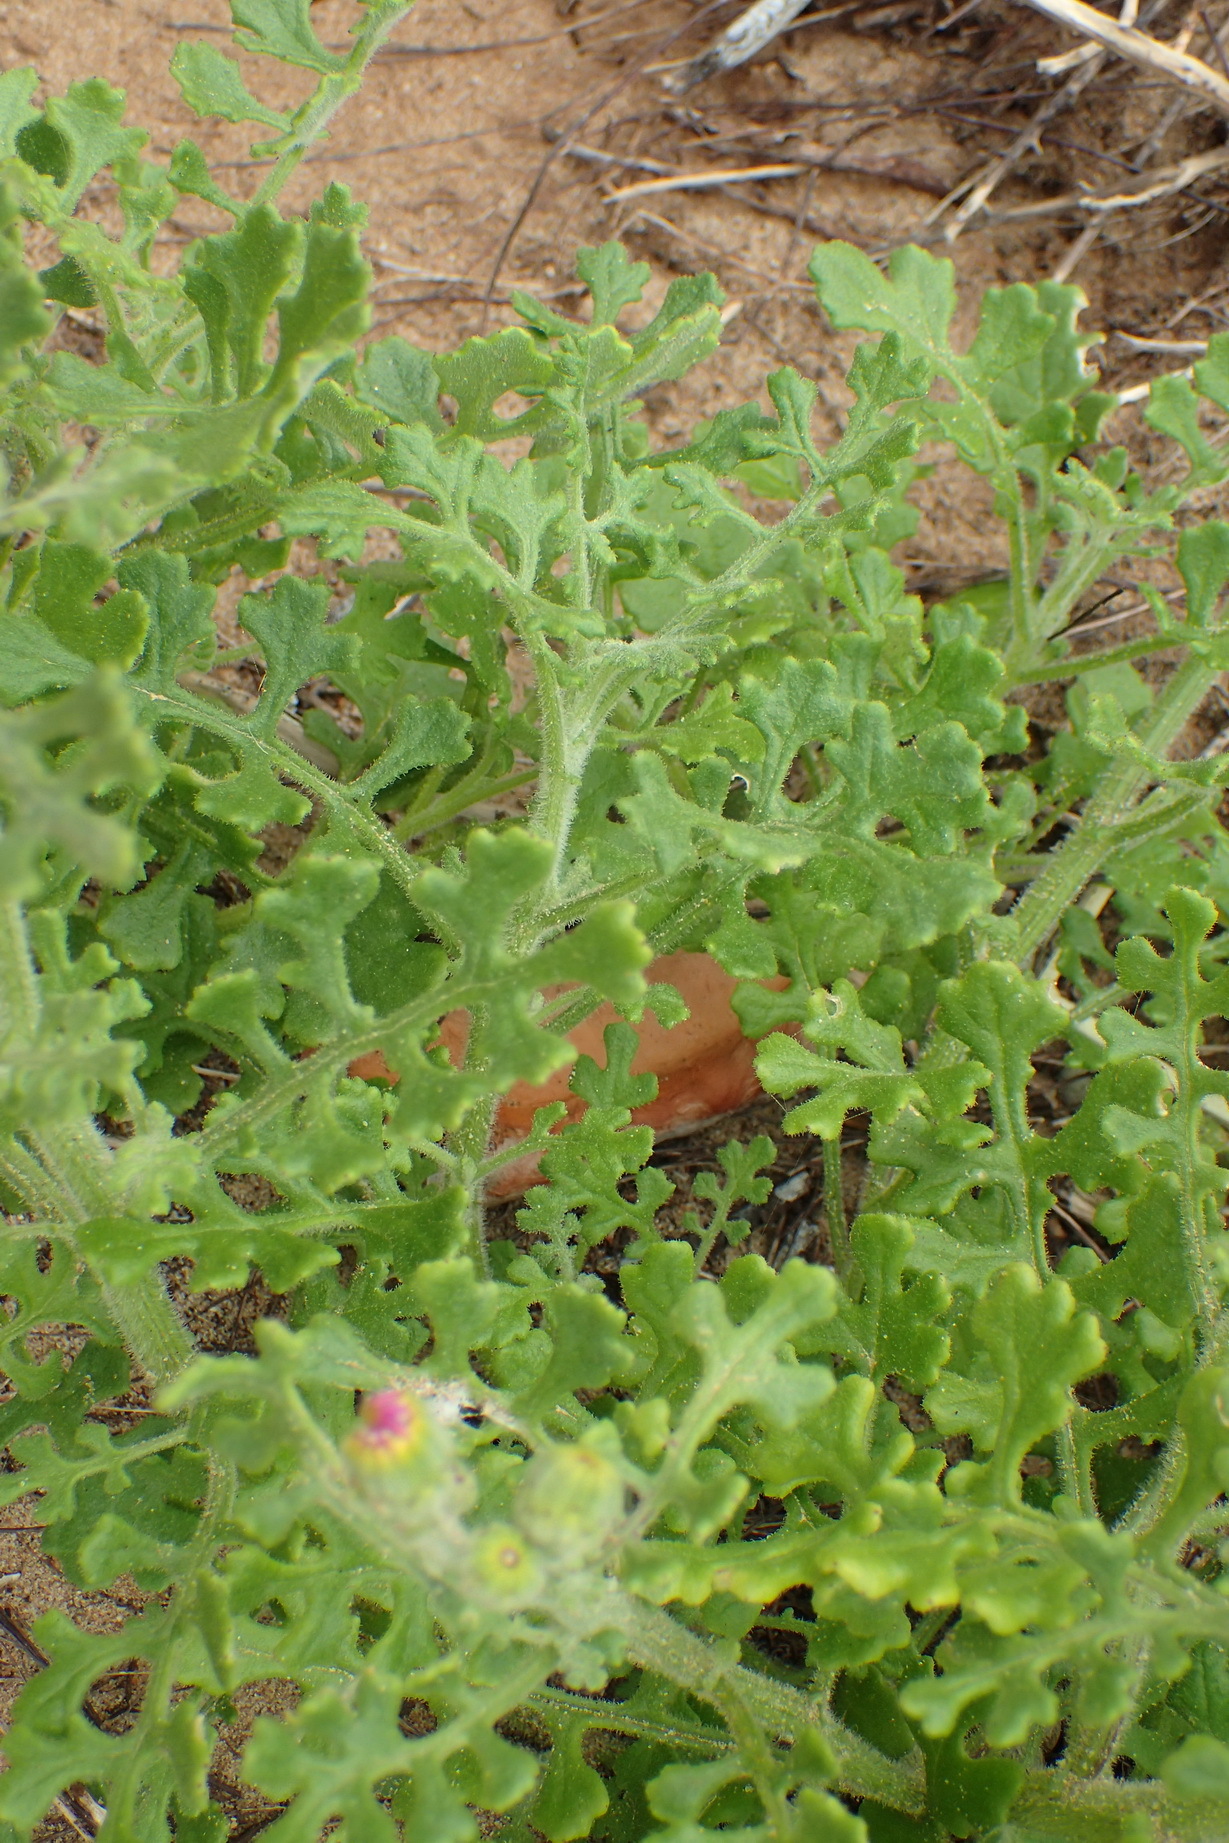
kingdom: Plantae
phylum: Tracheophyta
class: Magnoliopsida
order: Asterales
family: Asteraceae
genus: Senecio
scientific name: Senecio elegans
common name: Purple groundsel
